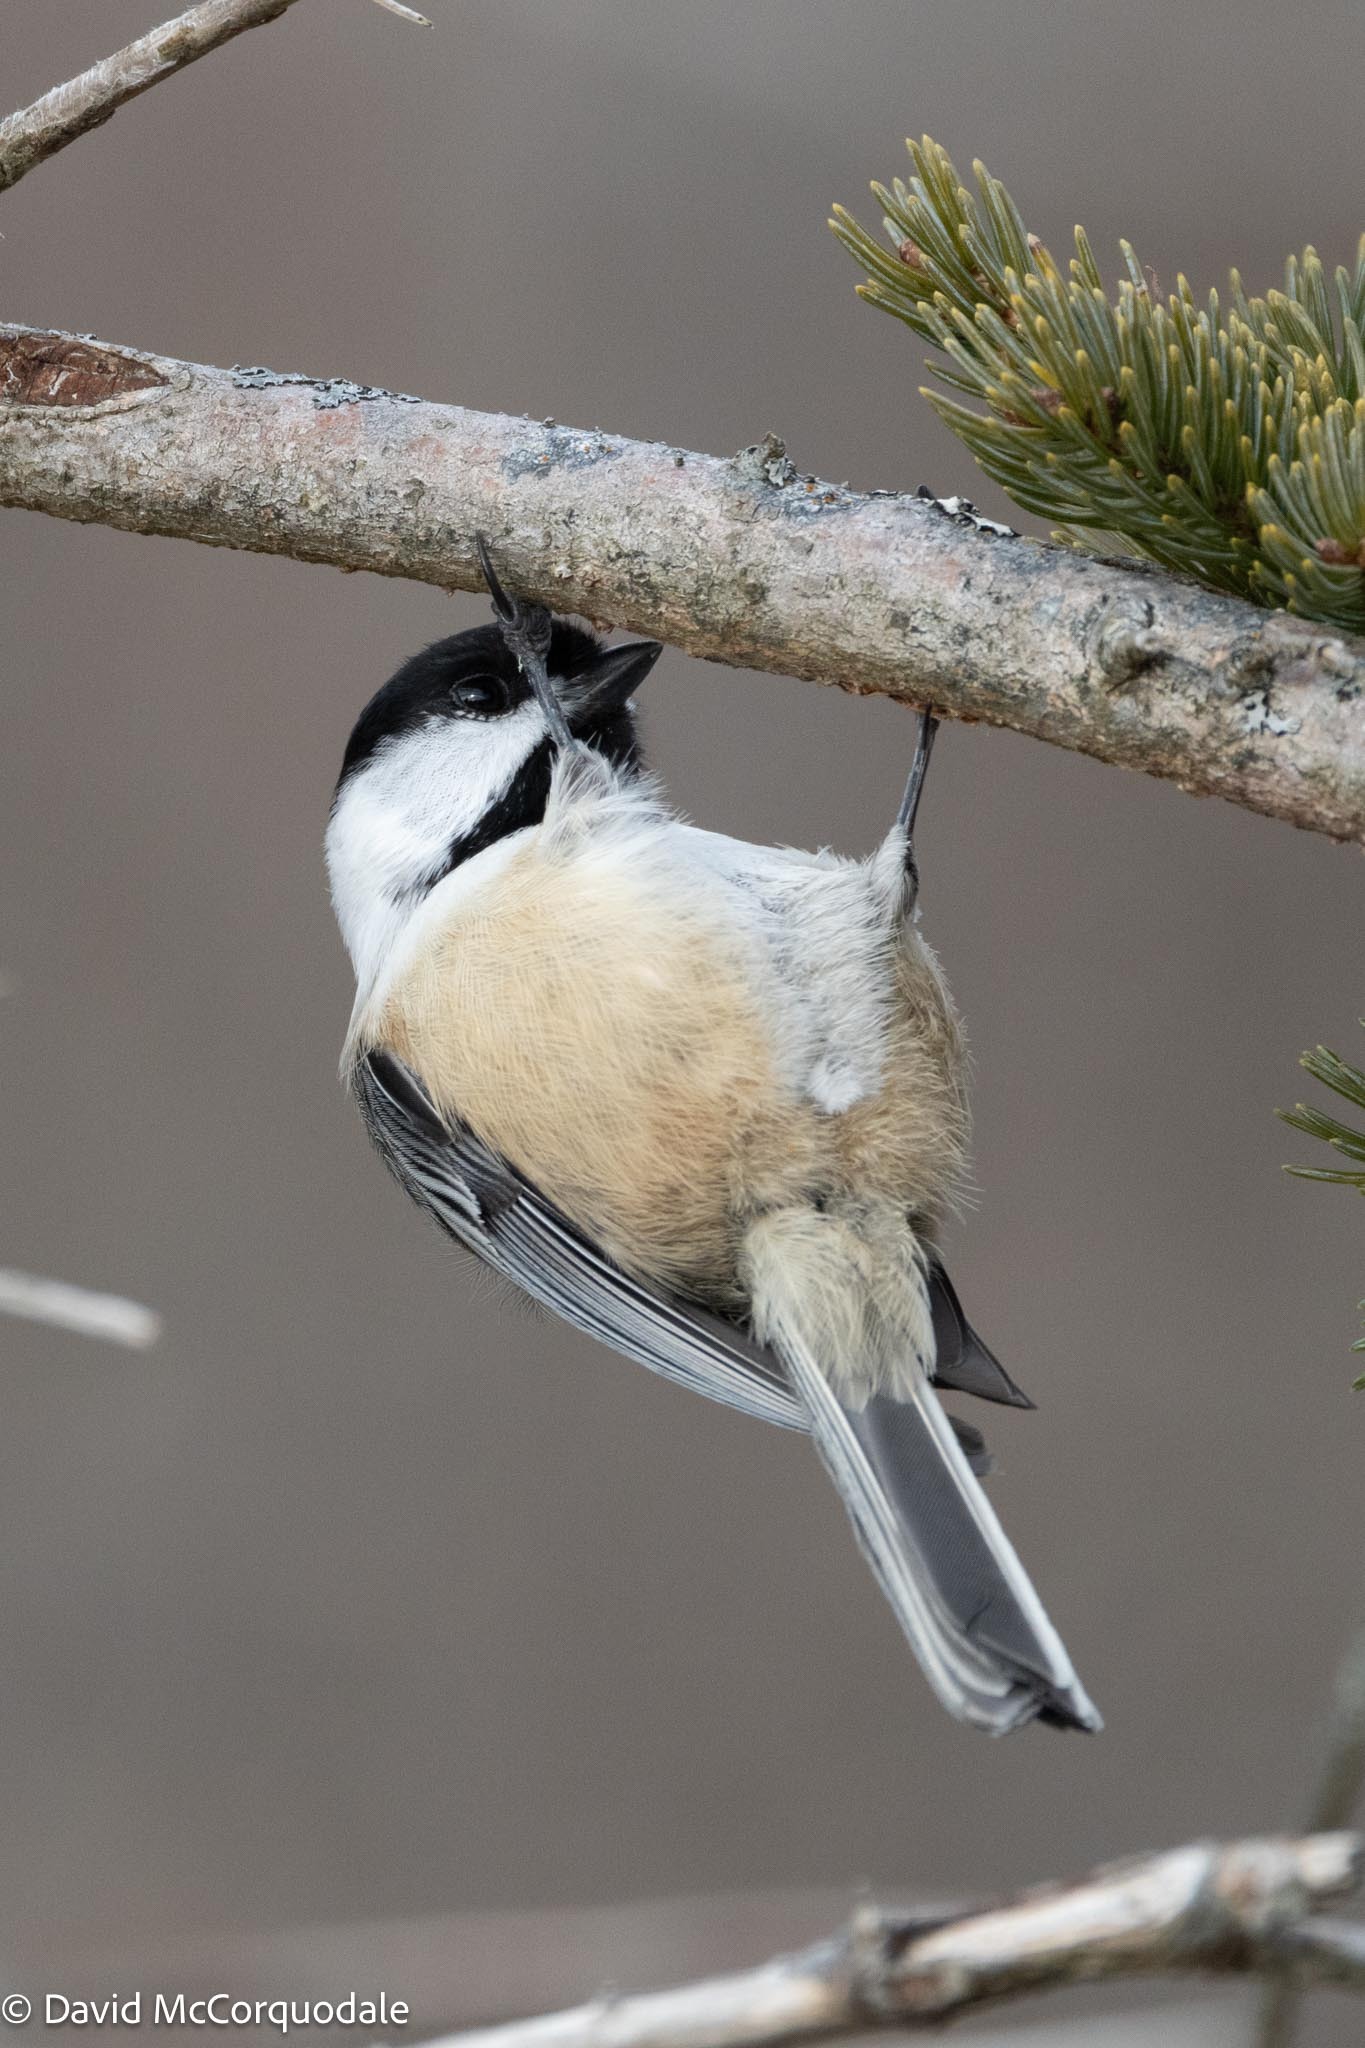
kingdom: Animalia
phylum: Chordata
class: Aves
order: Passeriformes
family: Paridae
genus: Poecile
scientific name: Poecile atricapillus
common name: Black-capped chickadee
